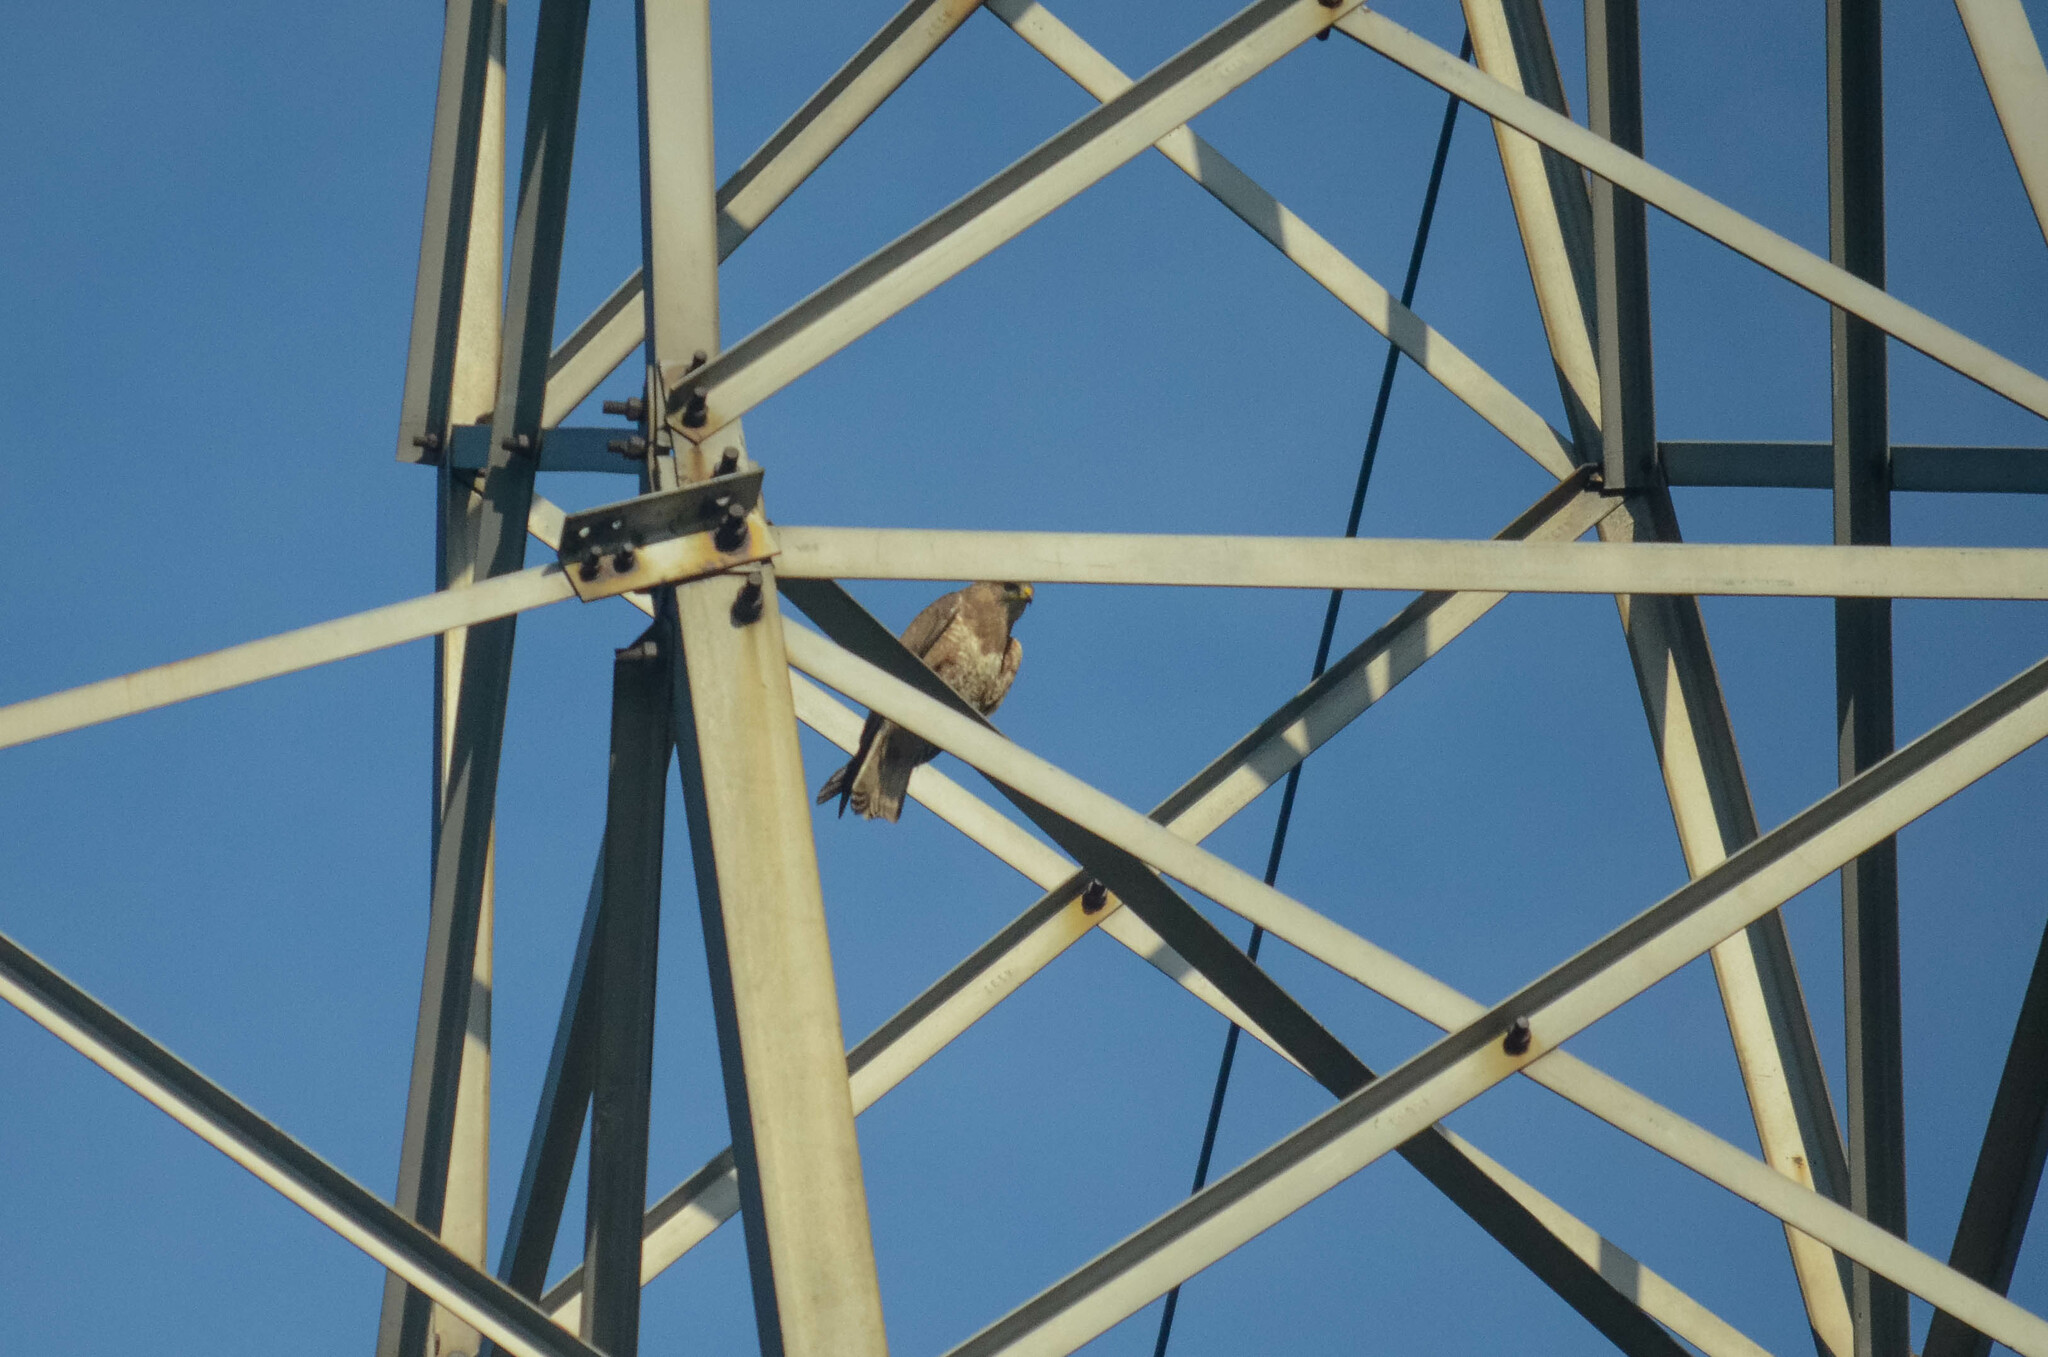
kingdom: Animalia
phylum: Chordata
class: Aves
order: Accipitriformes
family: Accipitridae
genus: Buteo
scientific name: Buteo buteo
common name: Common buzzard
